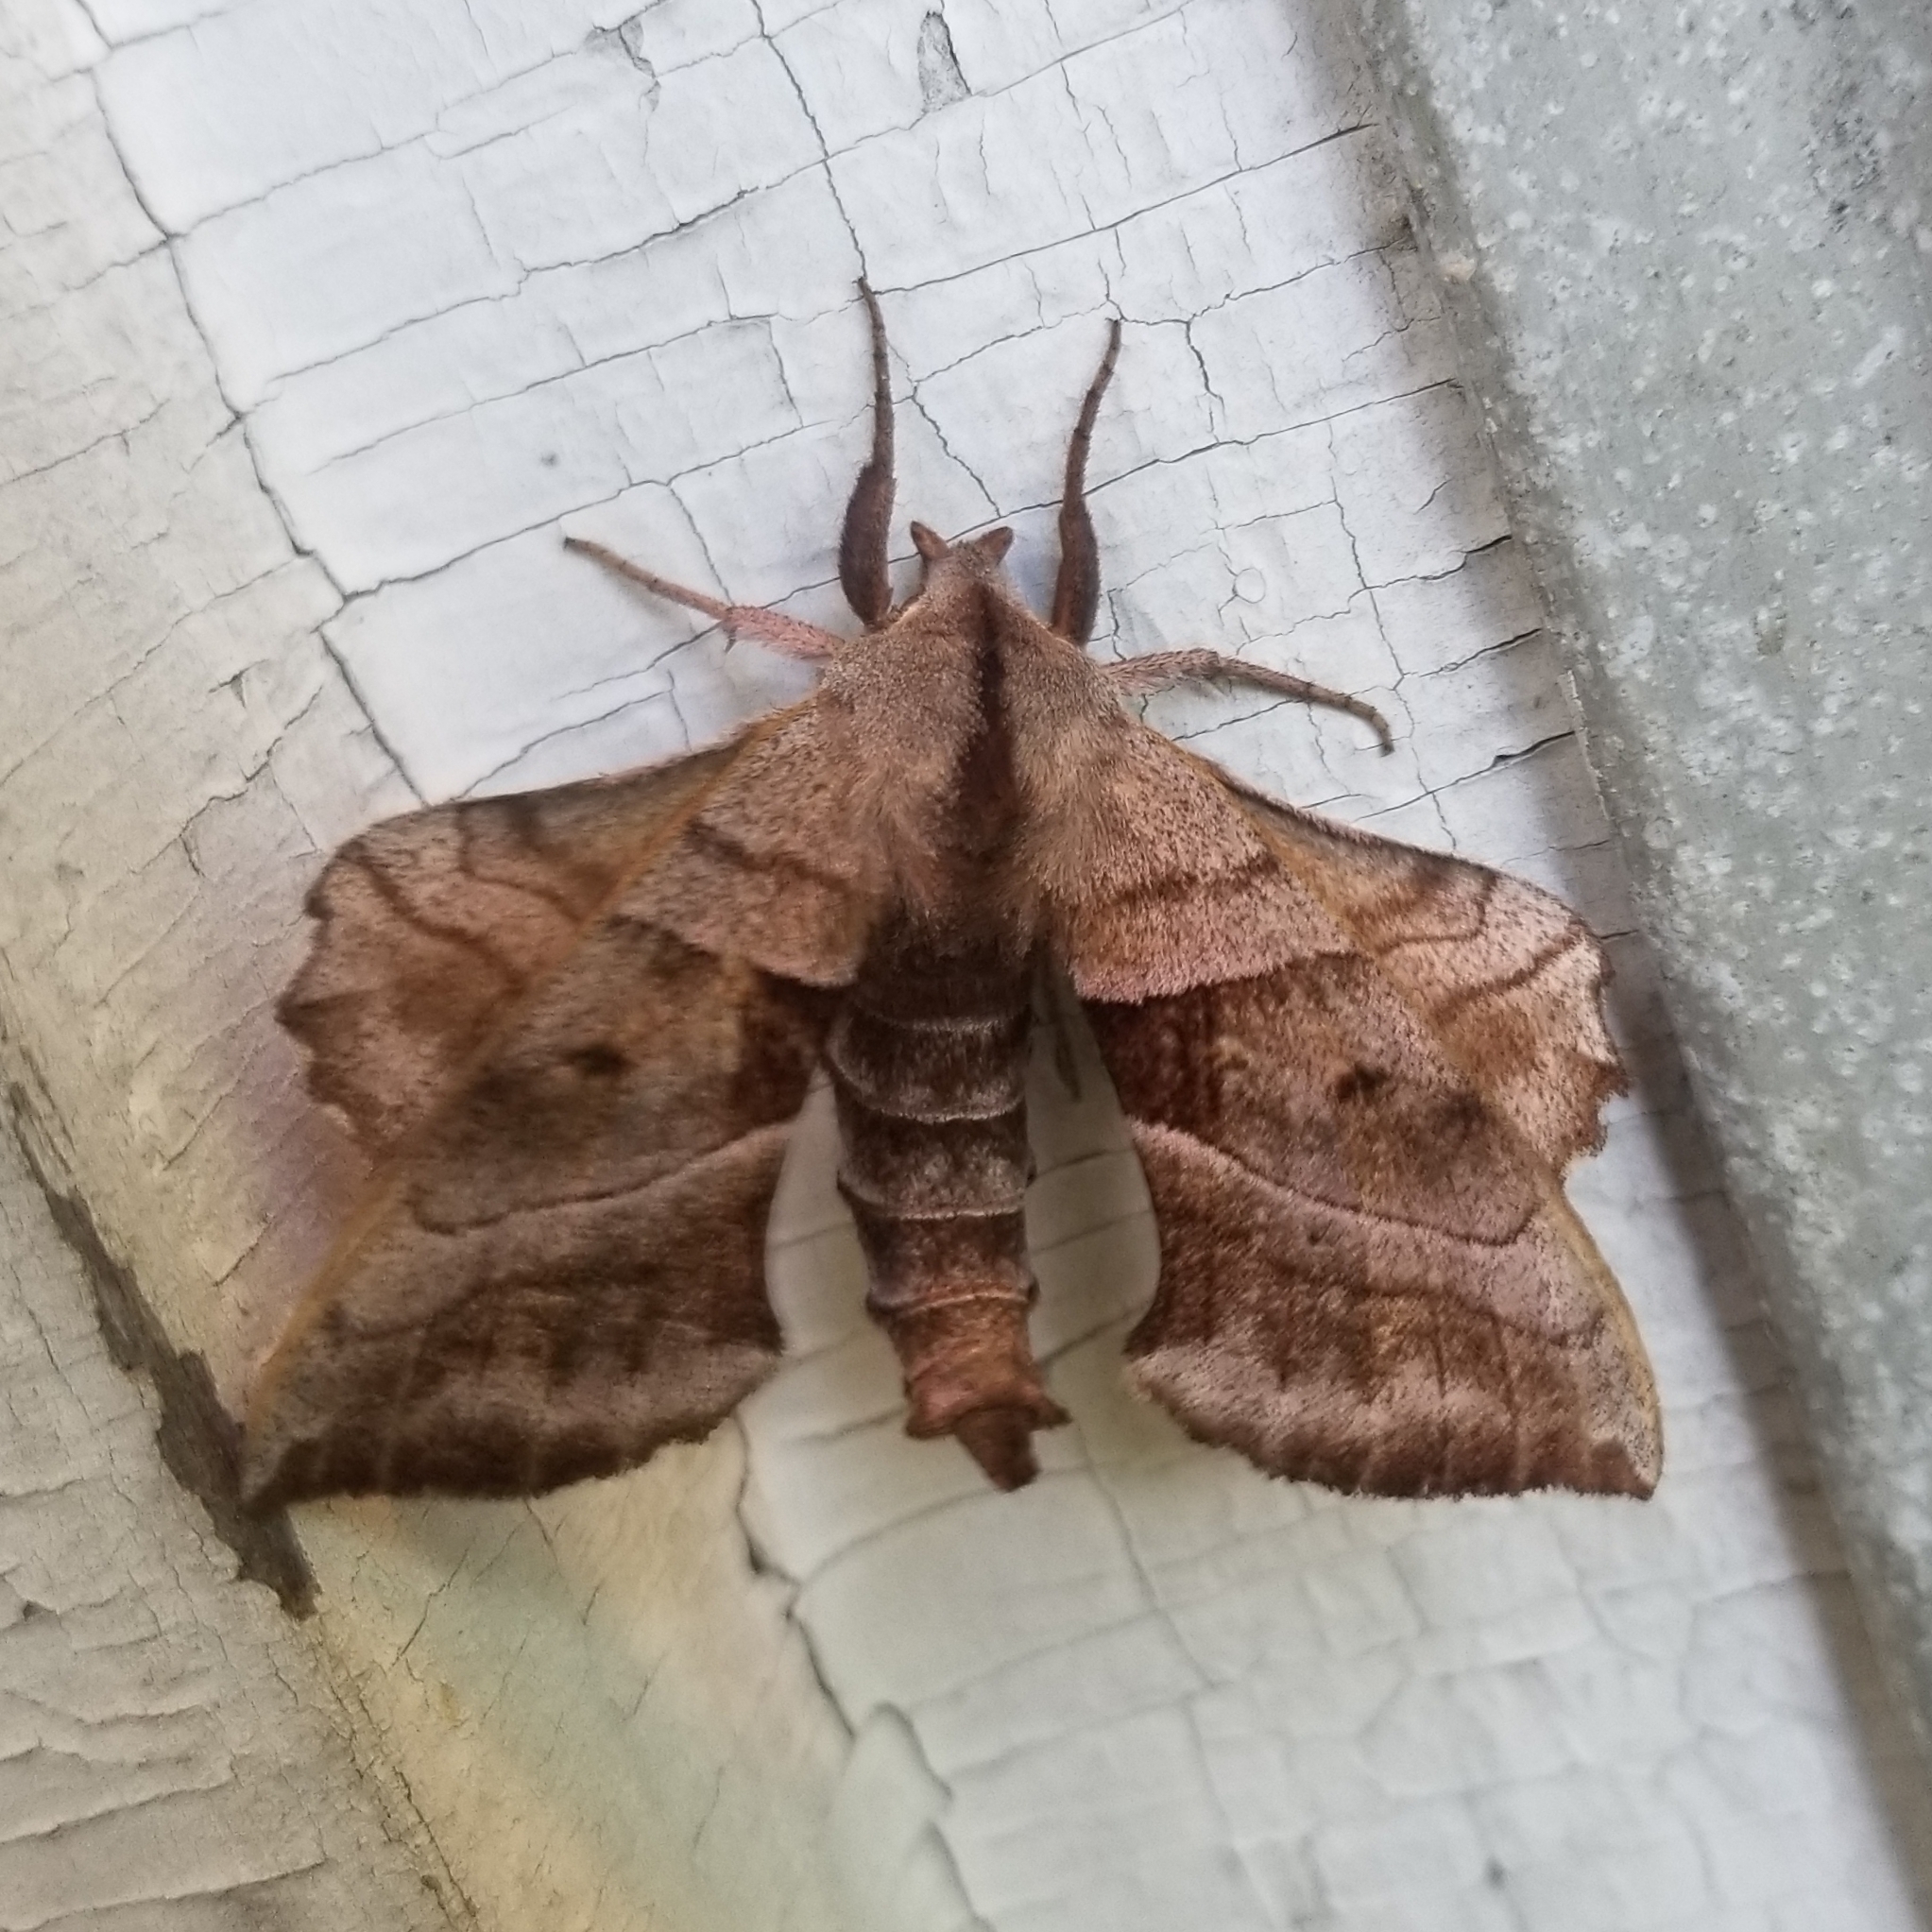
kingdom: Animalia
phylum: Arthropoda
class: Insecta
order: Lepidoptera
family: Sphingidae
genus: Amorpha
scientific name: Amorpha juglandis
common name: Walnut sphinx
